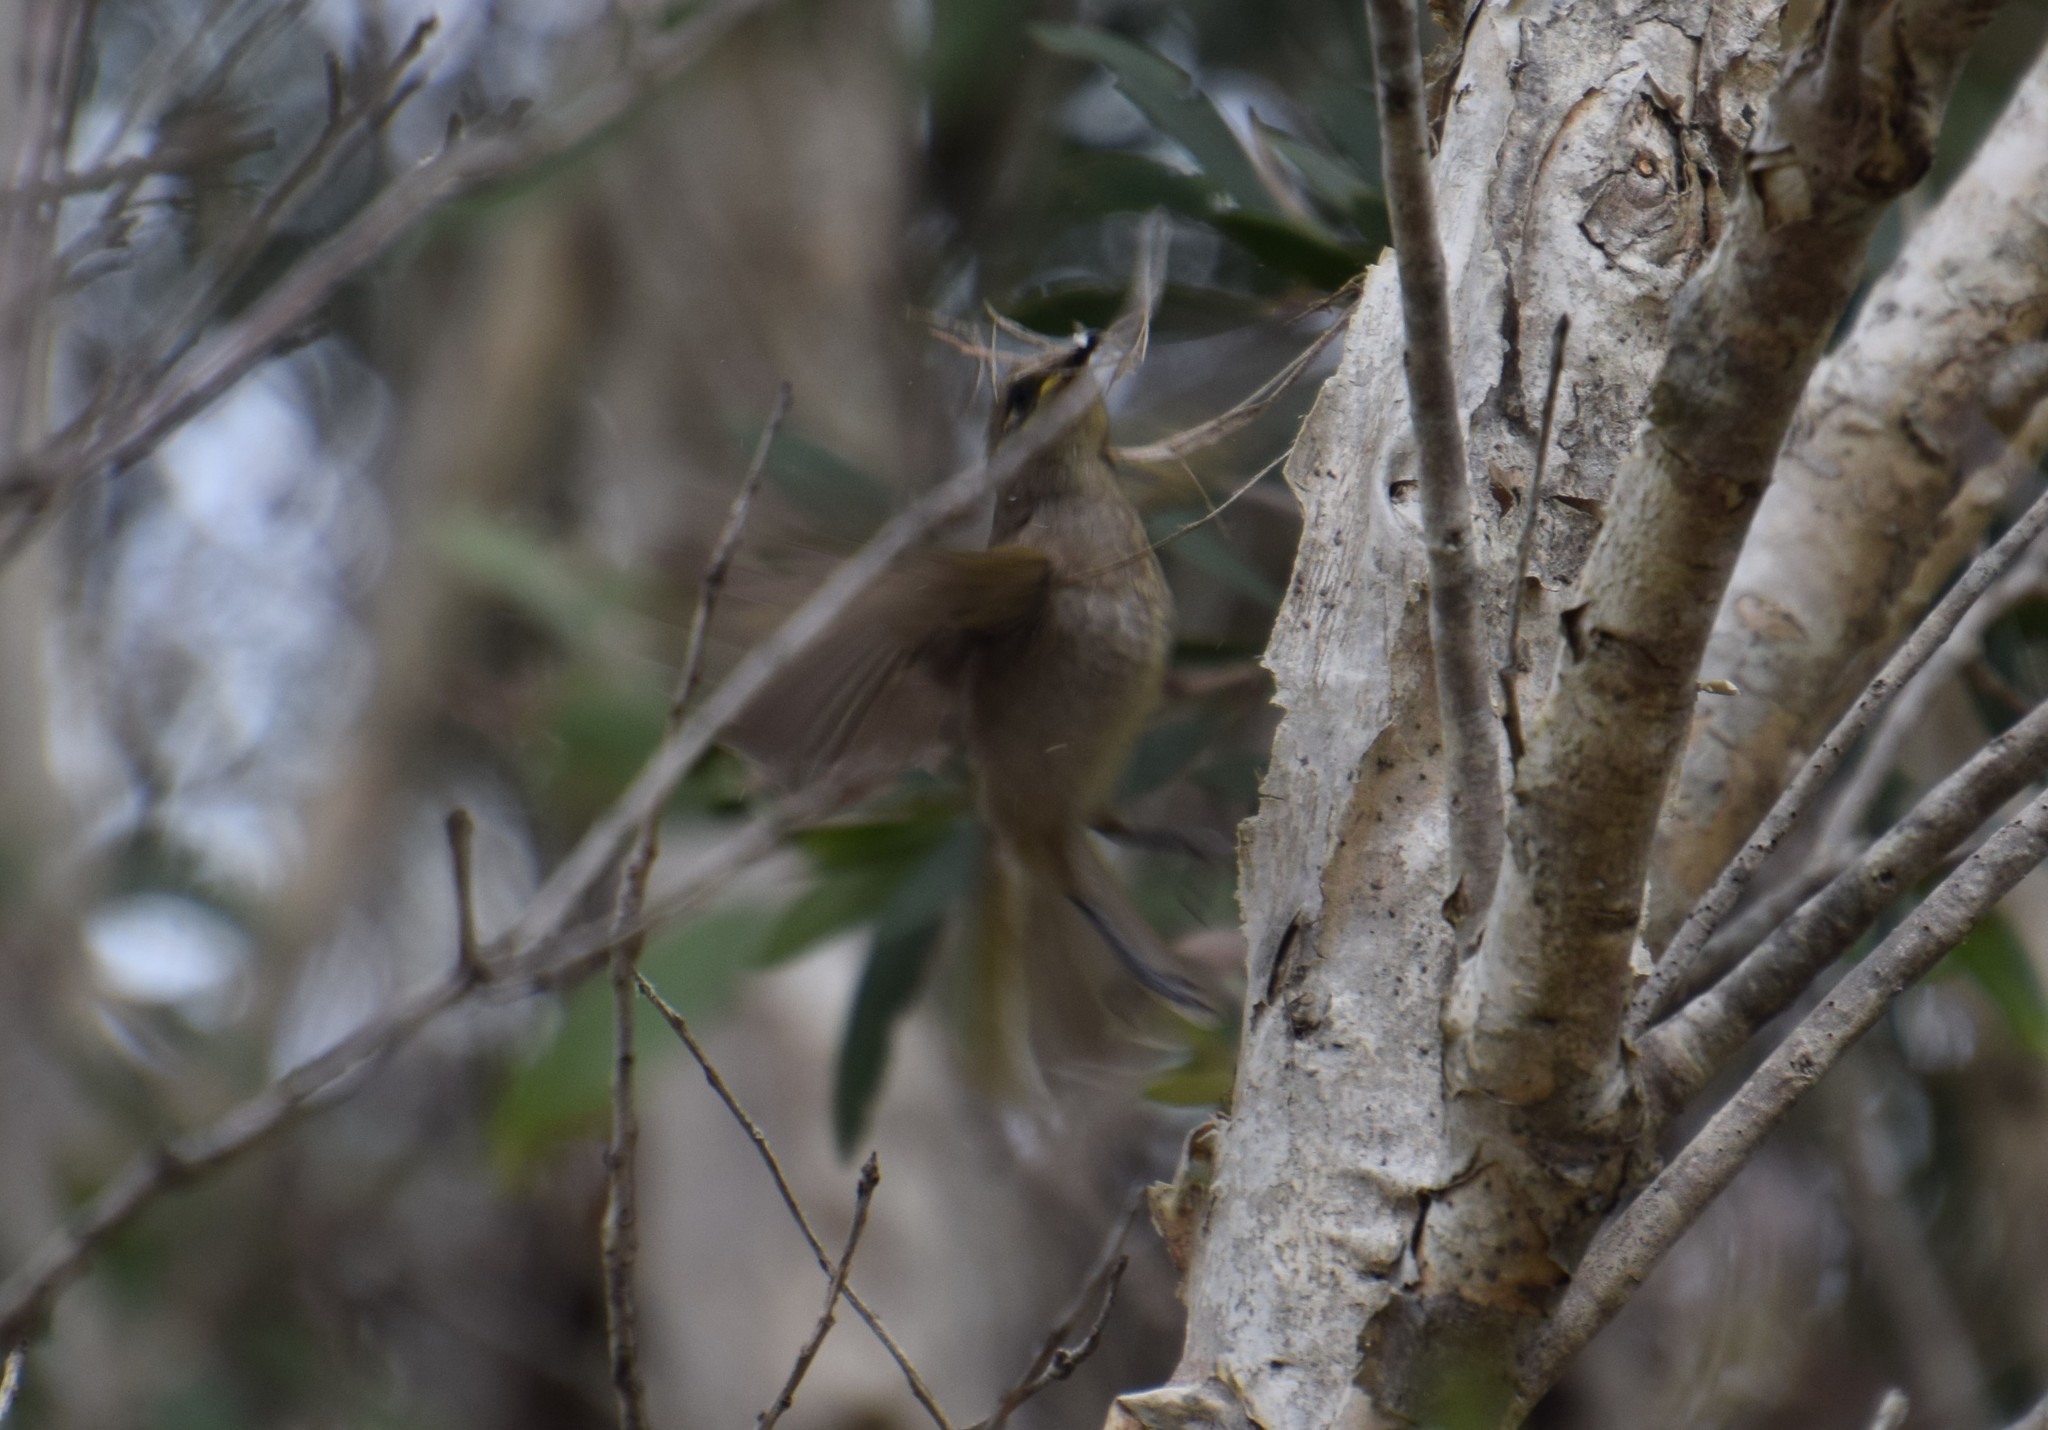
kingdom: Animalia
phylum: Chordata
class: Aves
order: Passeriformes
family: Meliphagidae
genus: Lichmera
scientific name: Lichmera indistincta
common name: Brown honeyeater
